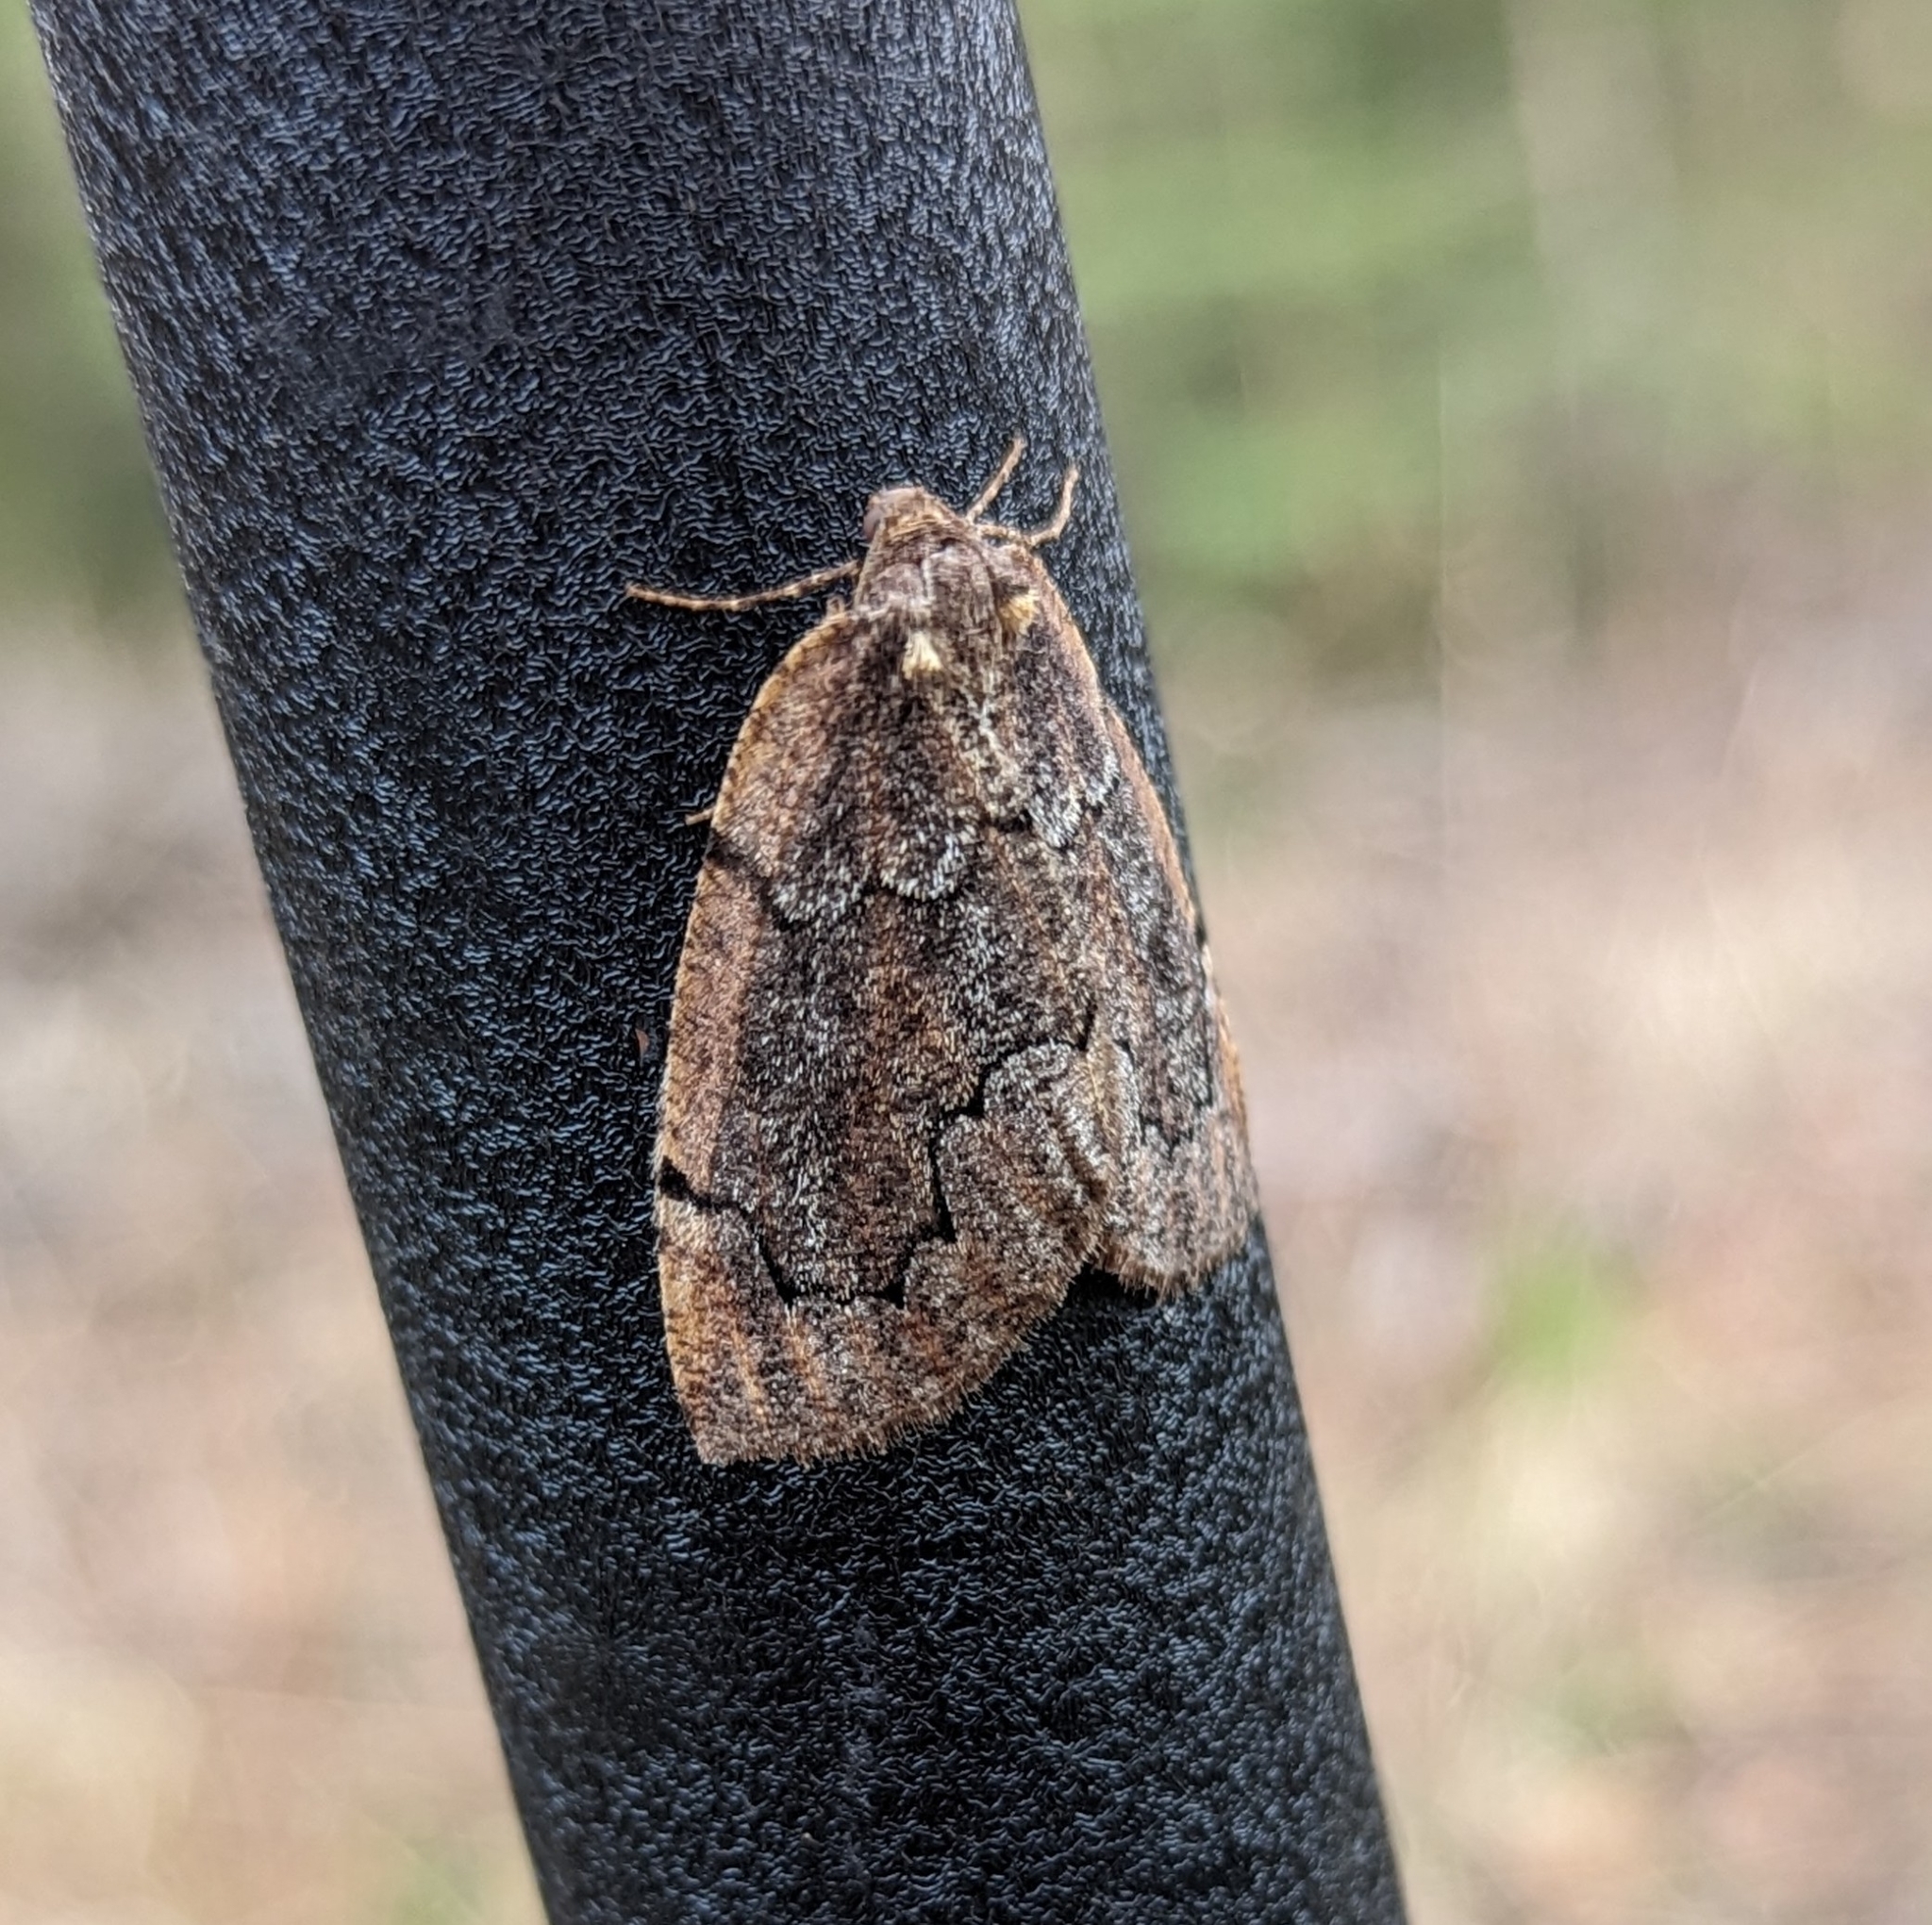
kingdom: Animalia
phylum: Arthropoda
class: Insecta
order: Lepidoptera
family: Geometridae
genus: Spodolepis
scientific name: Spodolepis danbyi
